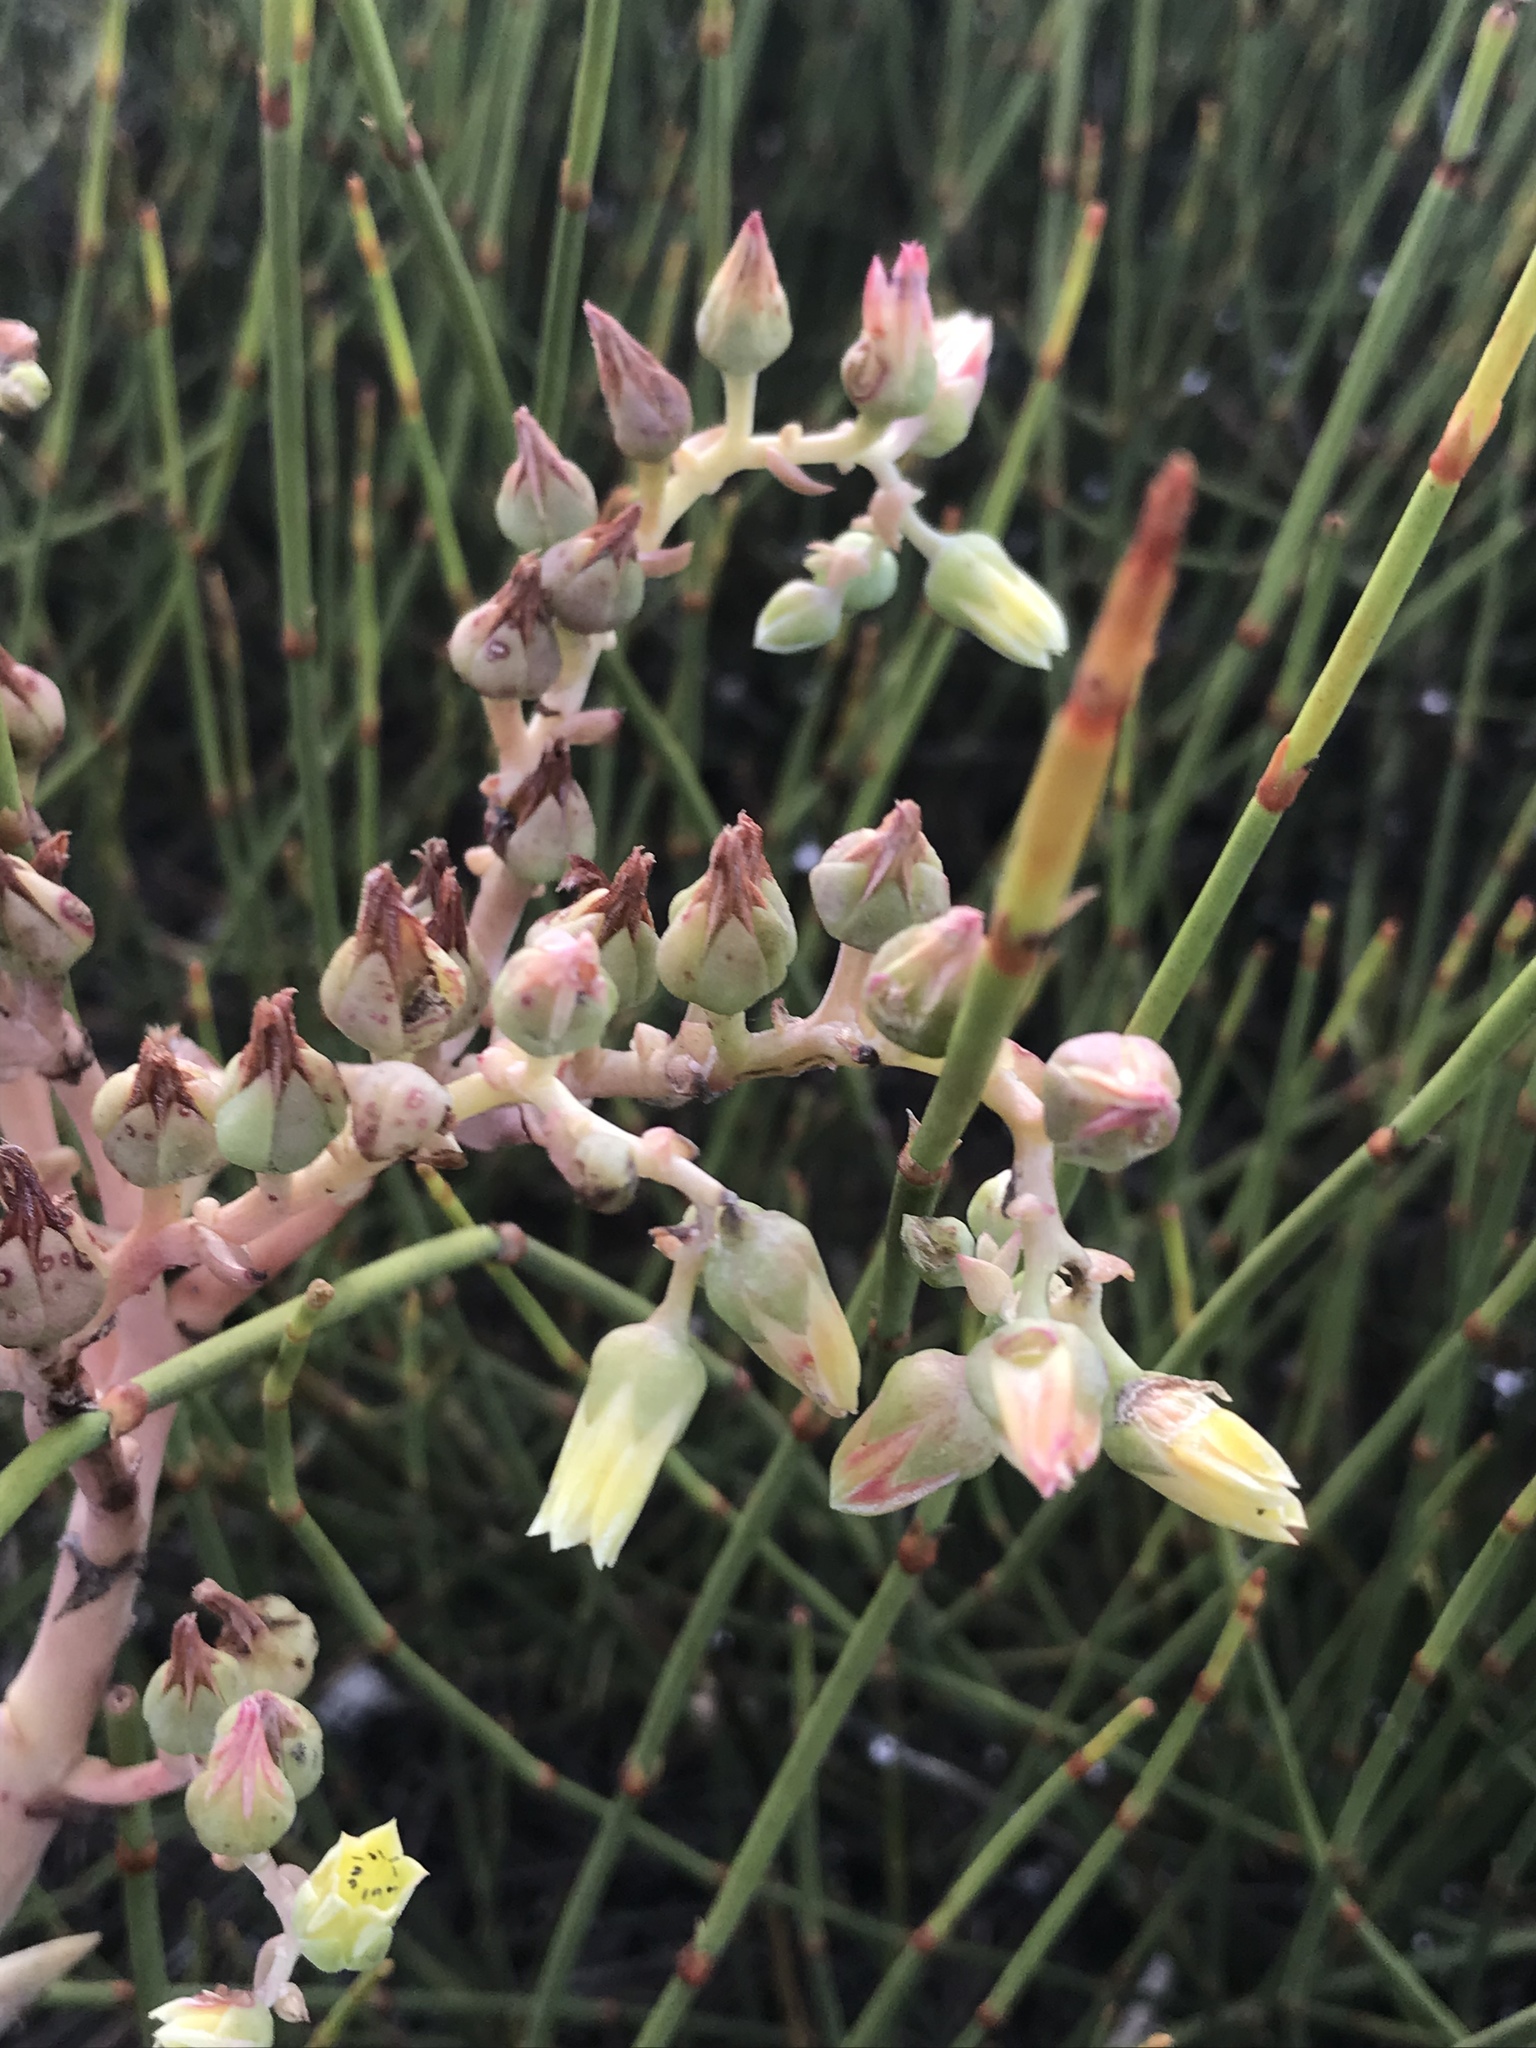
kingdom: Plantae
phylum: Tracheophyta
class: Magnoliopsida
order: Saxifragales
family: Crassulaceae
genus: Dudleya
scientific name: Dudleya cultrata
